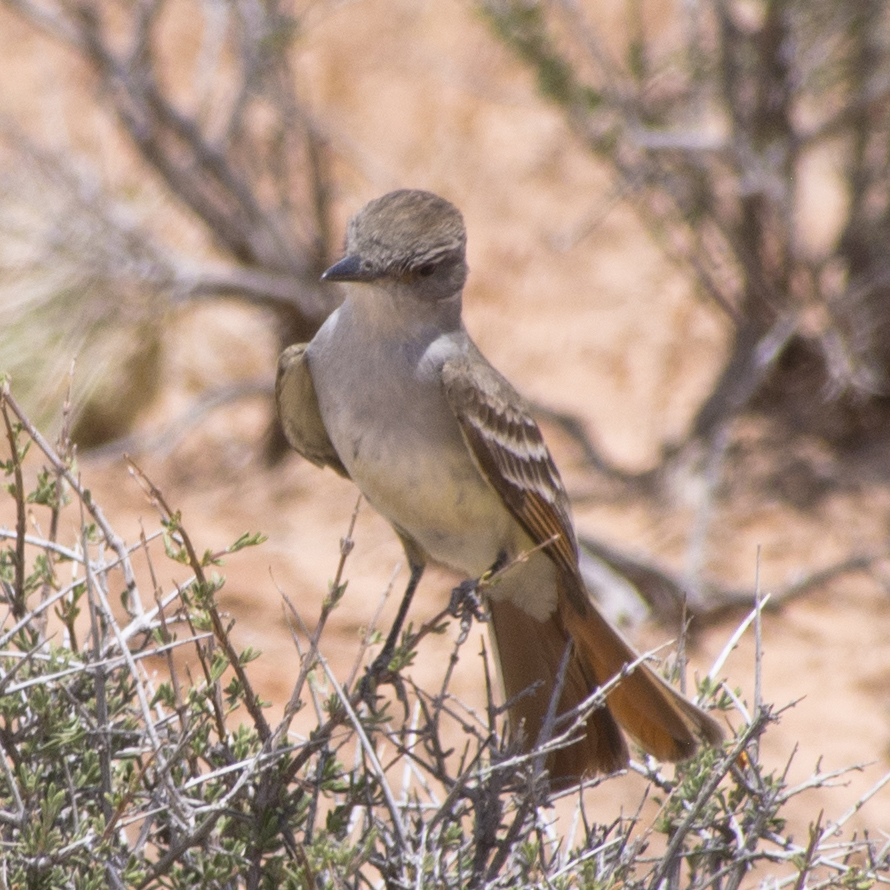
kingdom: Animalia
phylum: Chordata
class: Aves
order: Passeriformes
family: Tyrannidae
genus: Myiarchus
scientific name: Myiarchus cinerascens
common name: Ash-throated flycatcher
